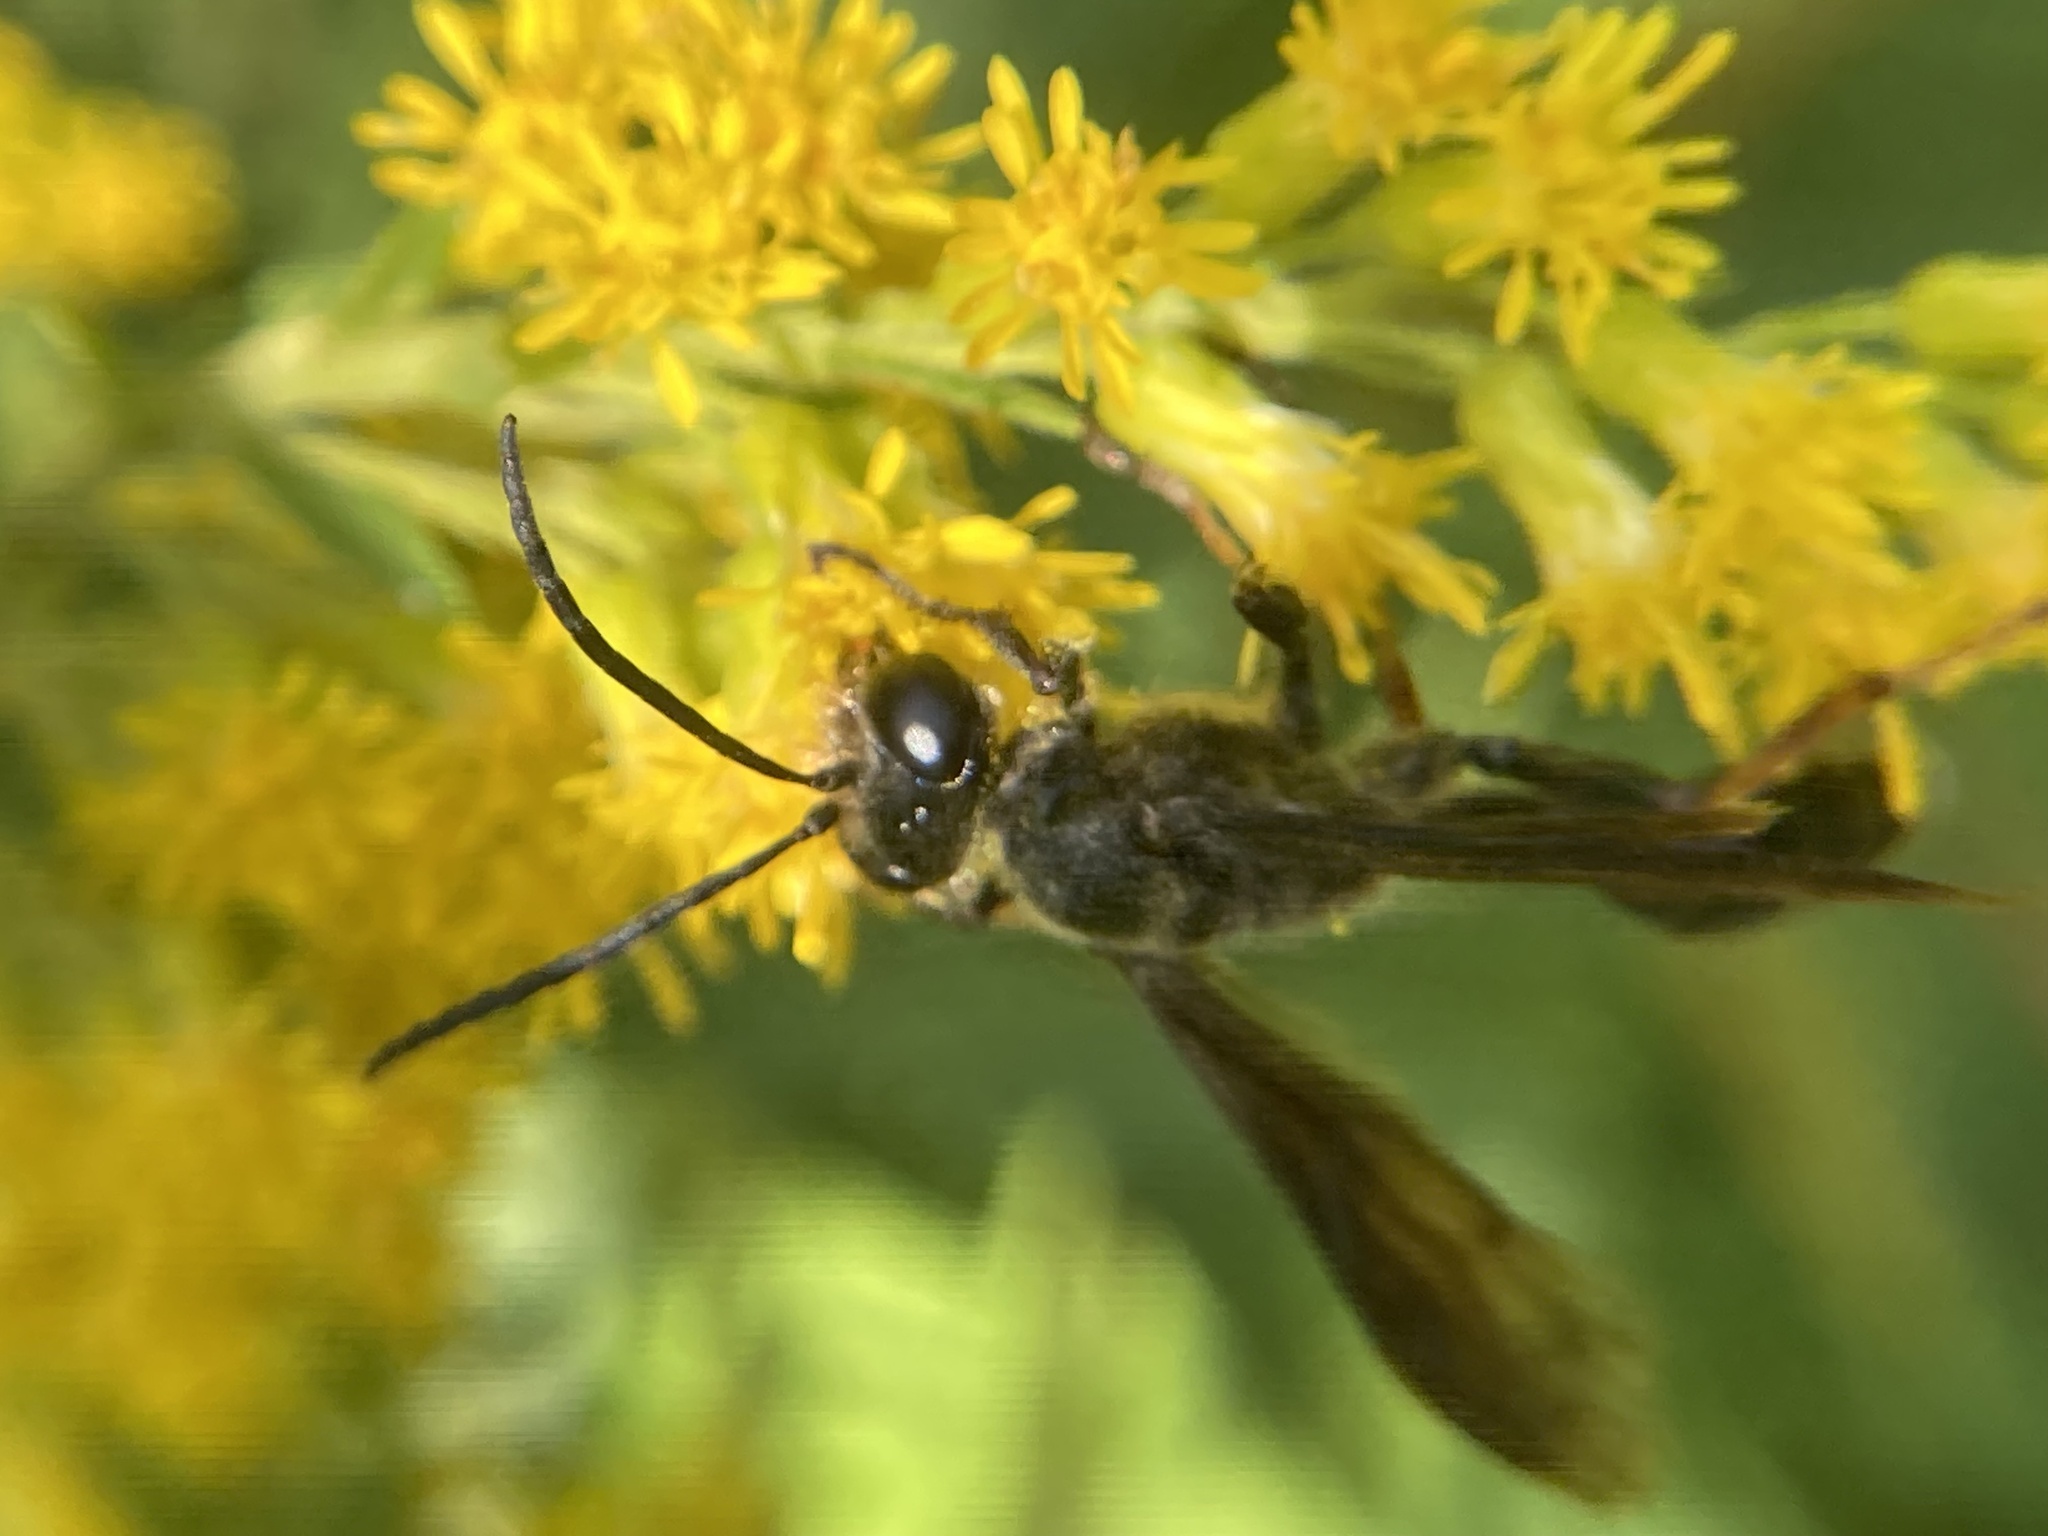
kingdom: Animalia
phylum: Arthropoda
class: Insecta
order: Hymenoptera
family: Sphecidae
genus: Isodontia
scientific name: Isodontia auripes
